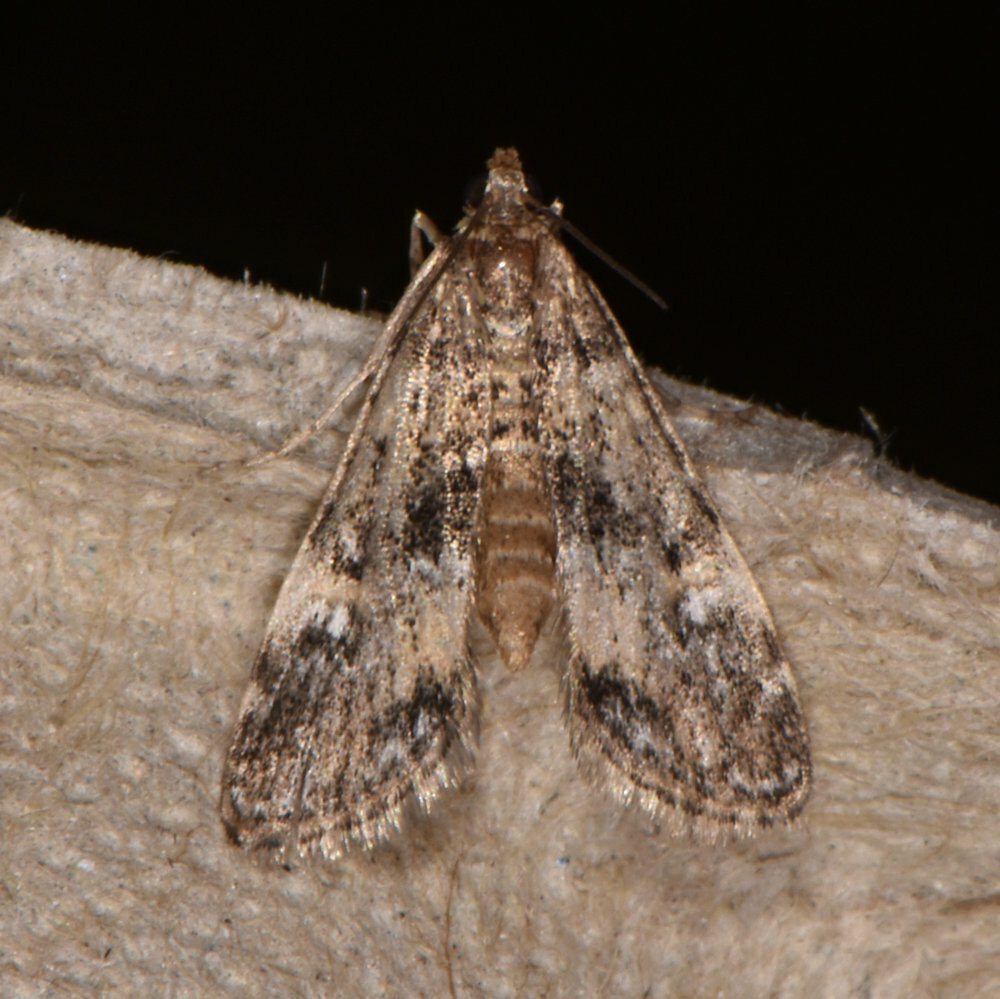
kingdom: Animalia
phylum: Arthropoda
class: Insecta
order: Lepidoptera
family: Crambidae
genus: Elophila
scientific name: Elophila obliteralis
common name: Waterlily leafcutter moth
